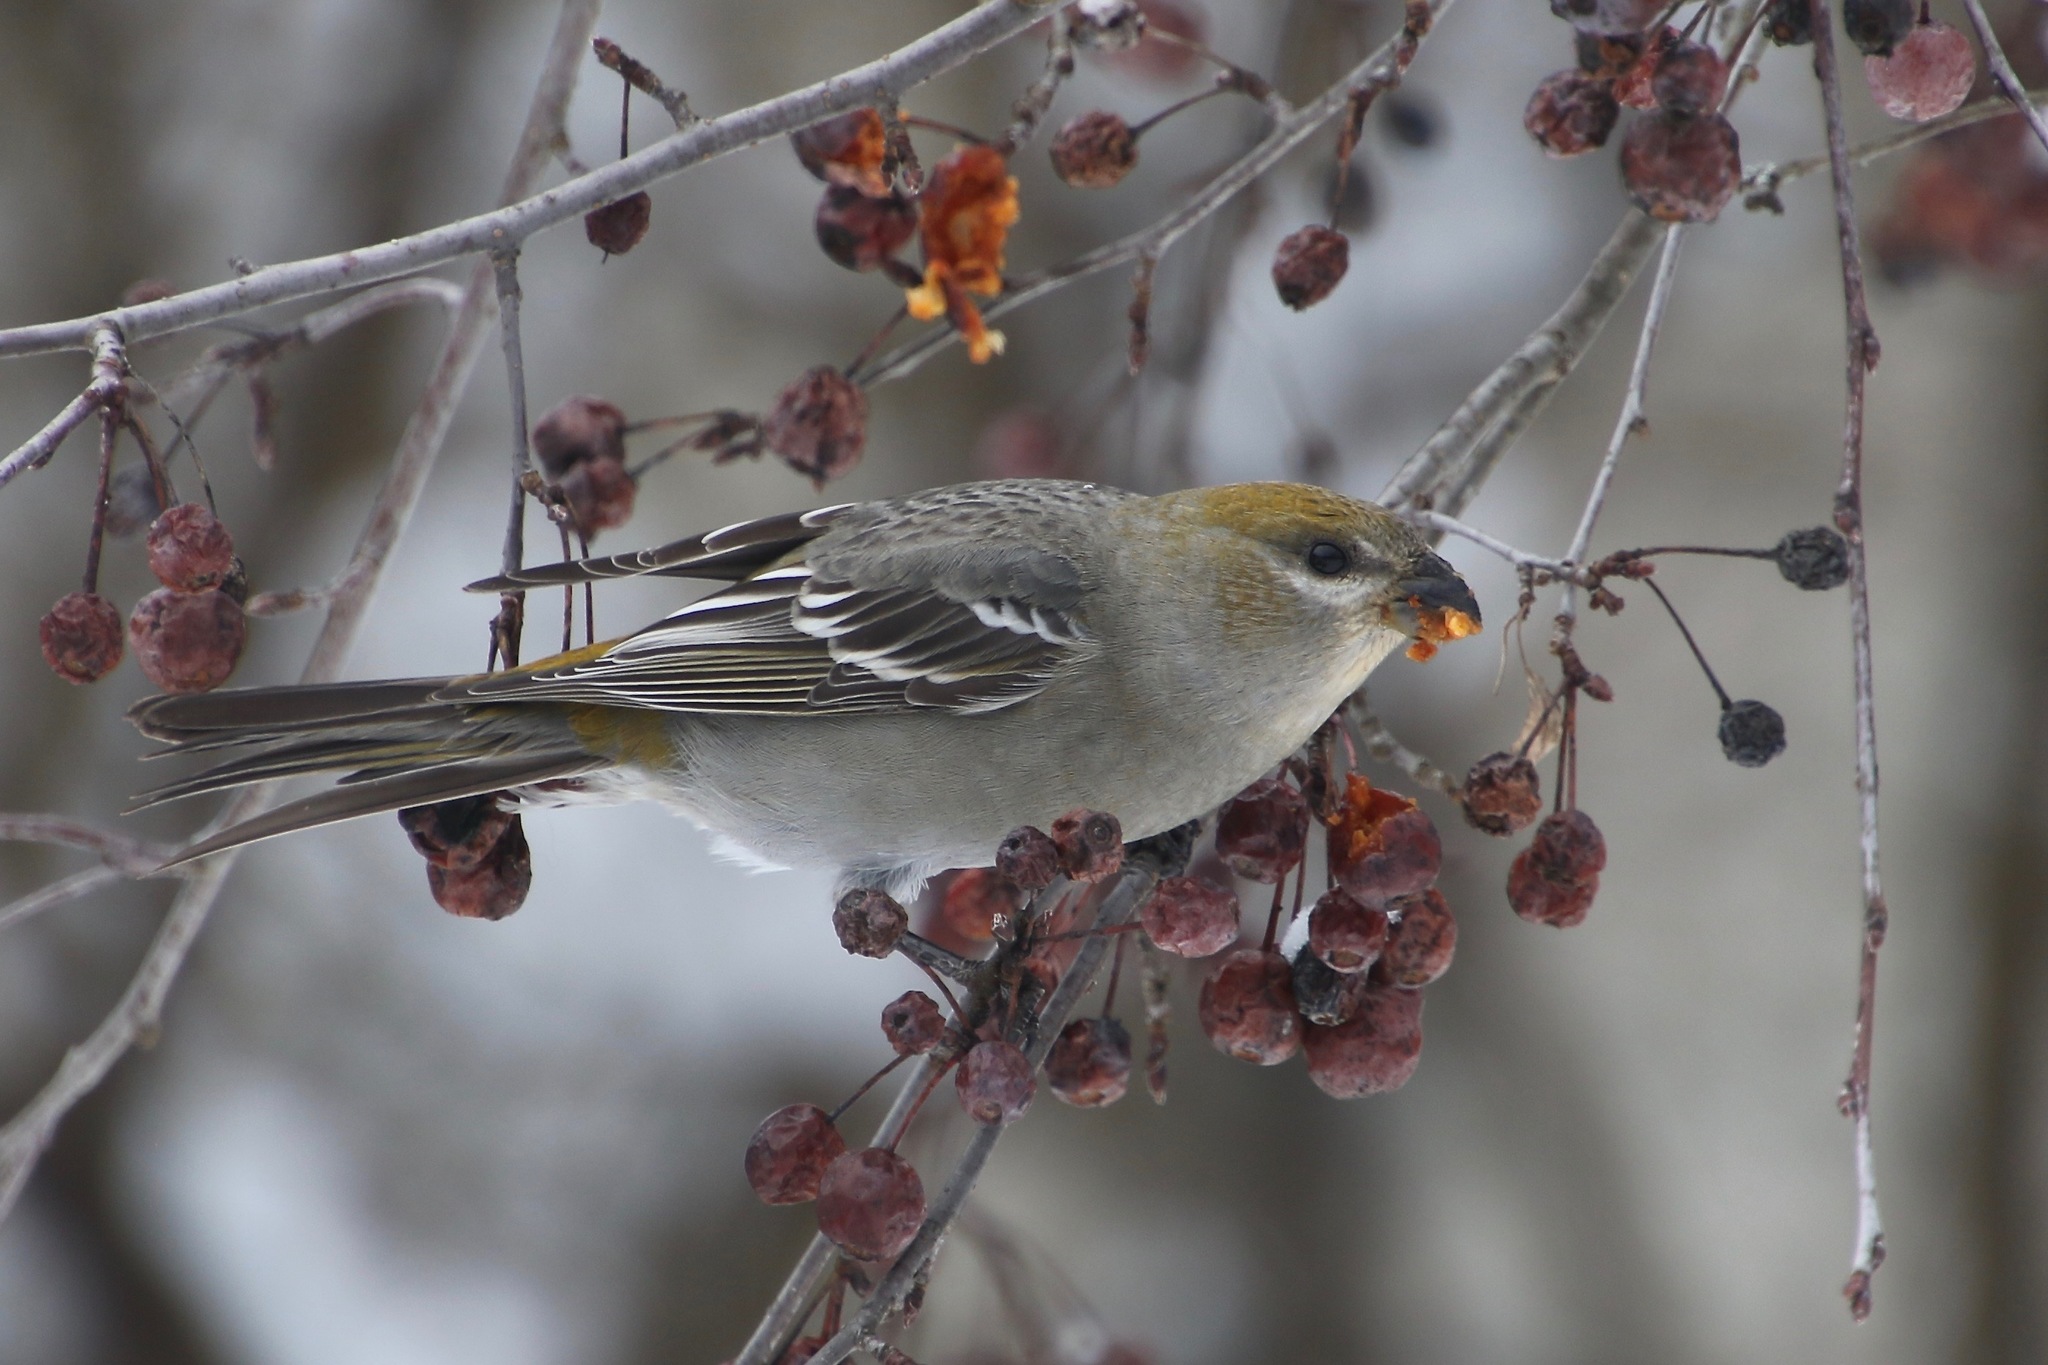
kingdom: Animalia
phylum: Chordata
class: Aves
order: Passeriformes
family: Fringillidae
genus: Pinicola
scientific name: Pinicola enucleator
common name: Pine grosbeak
